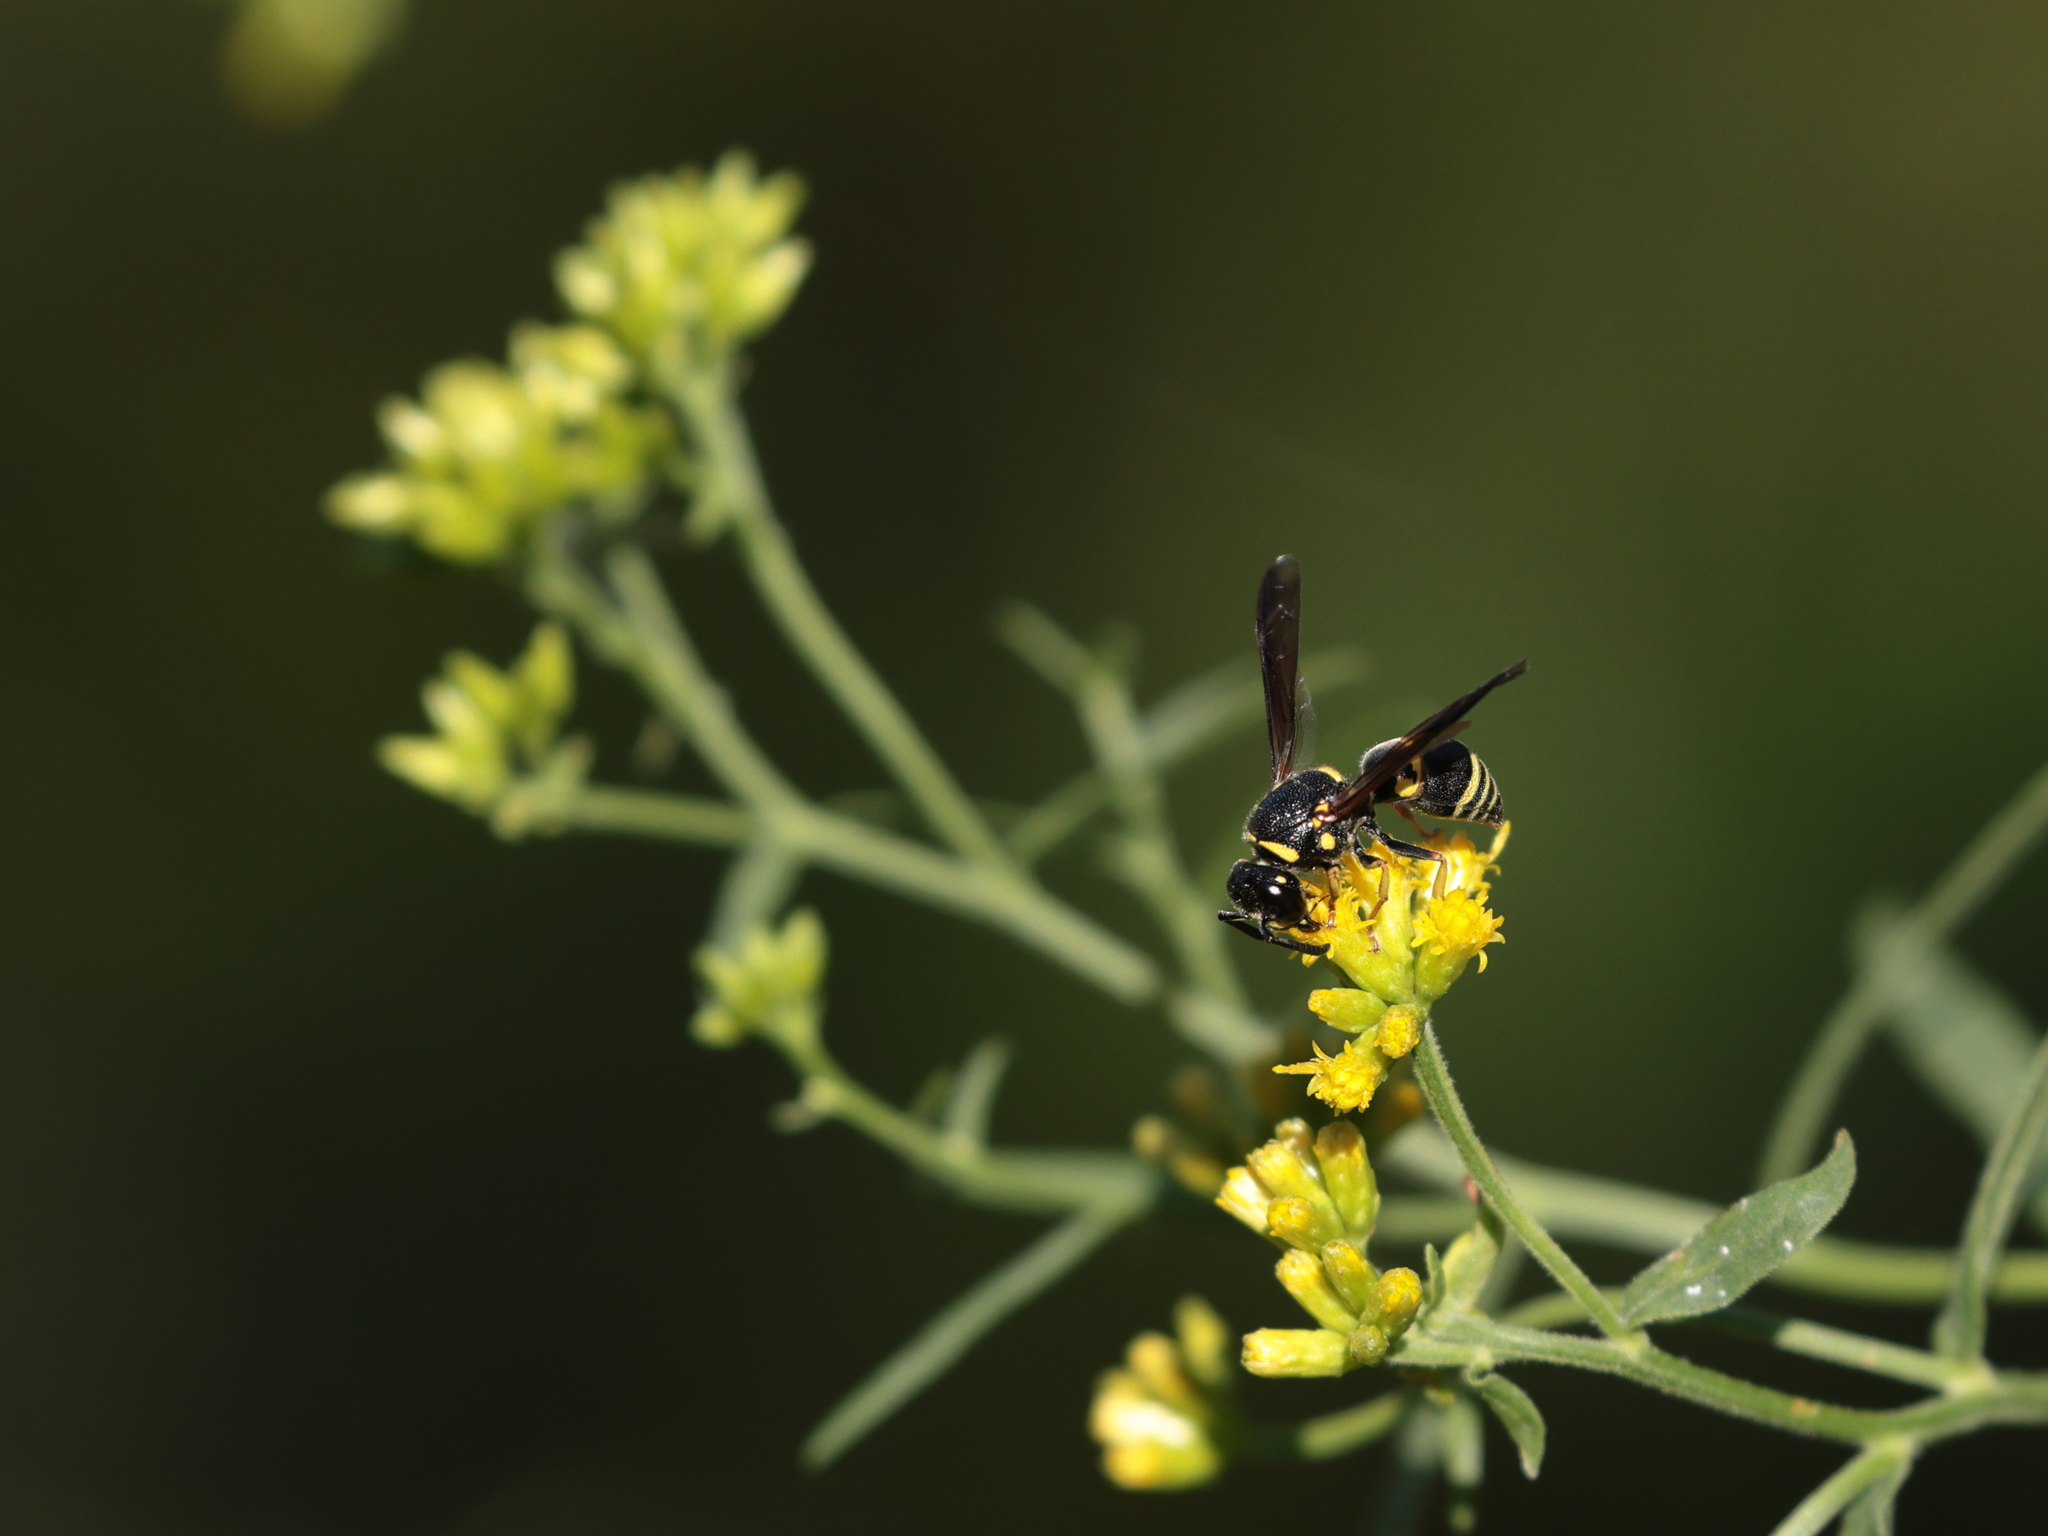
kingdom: Animalia
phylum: Arthropoda
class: Insecta
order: Hymenoptera
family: Eumenidae
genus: Euodynerus
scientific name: Euodynerus foraminatus
